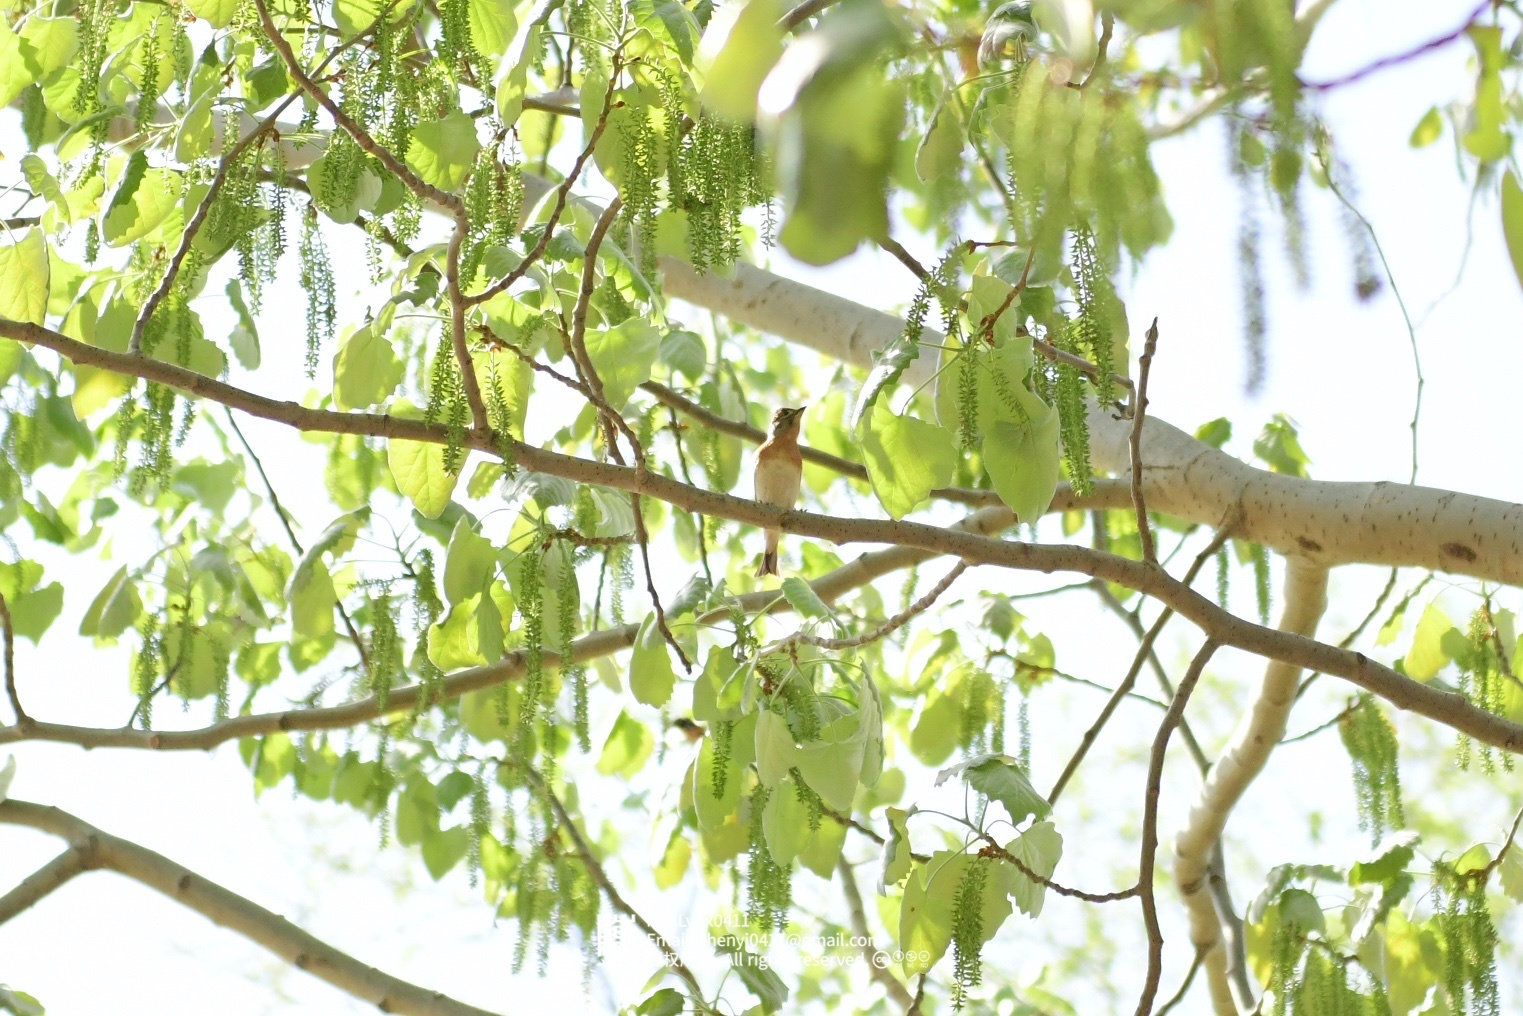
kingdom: Animalia
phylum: Chordata
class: Aves
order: Passeriformes
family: Fringillidae
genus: Fringilla
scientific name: Fringilla montifringilla
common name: Brambling
